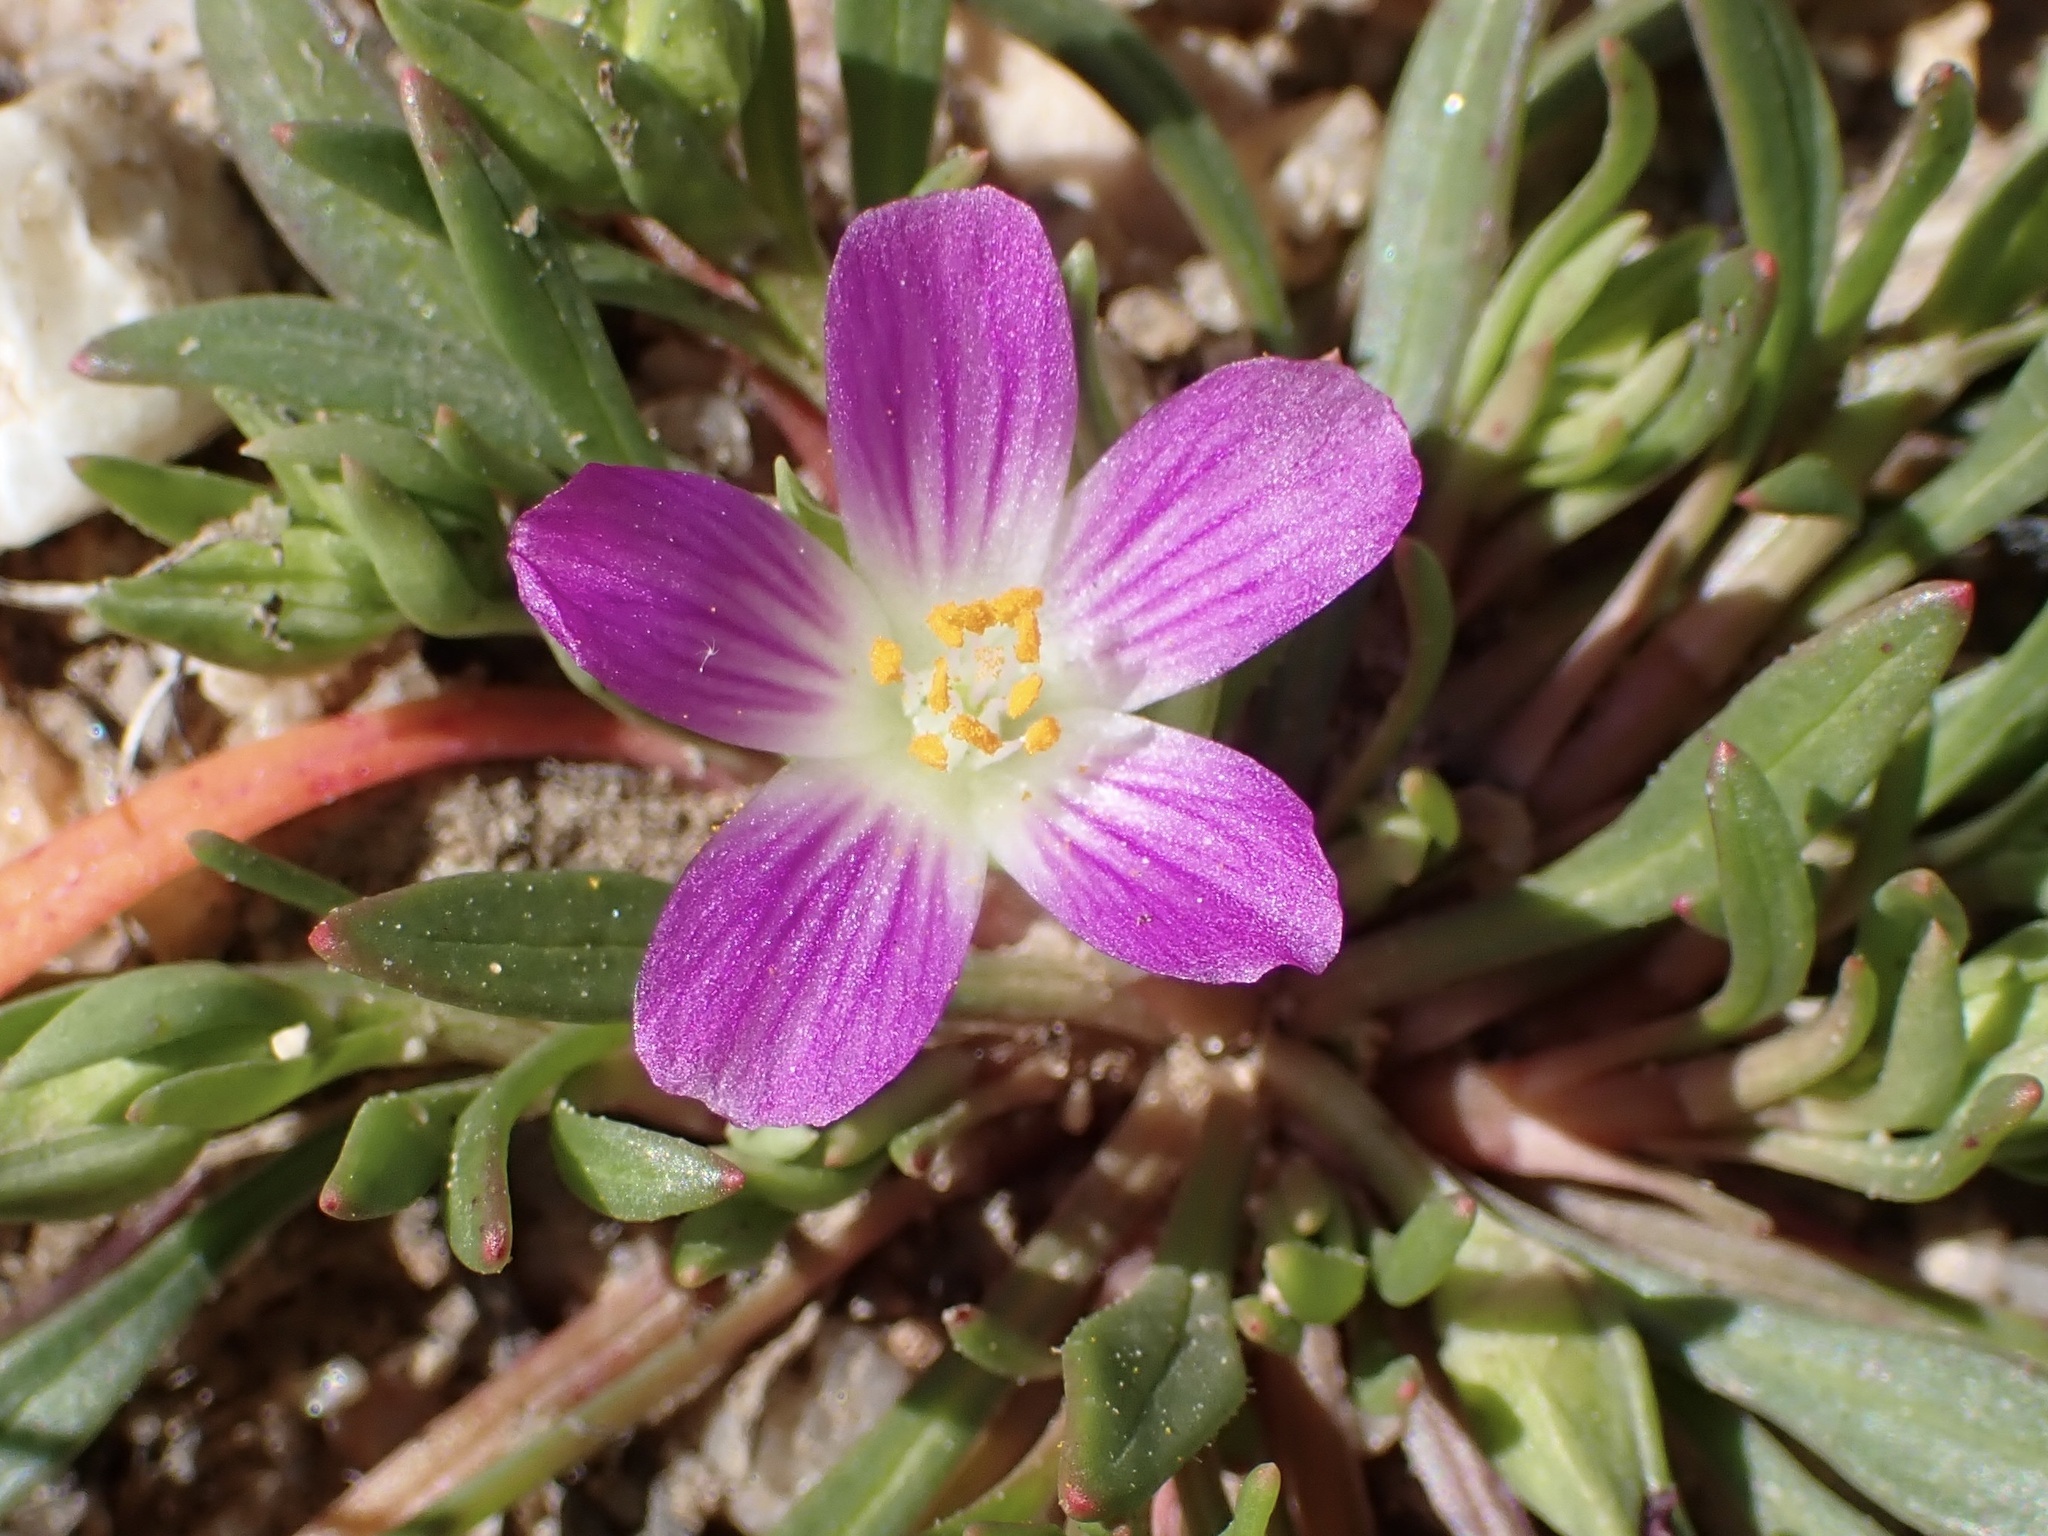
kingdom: Plantae
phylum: Tracheophyta
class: Magnoliopsida
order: Caryophyllales
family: Montiaceae
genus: Calandrinia
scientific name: Calandrinia menziesii
